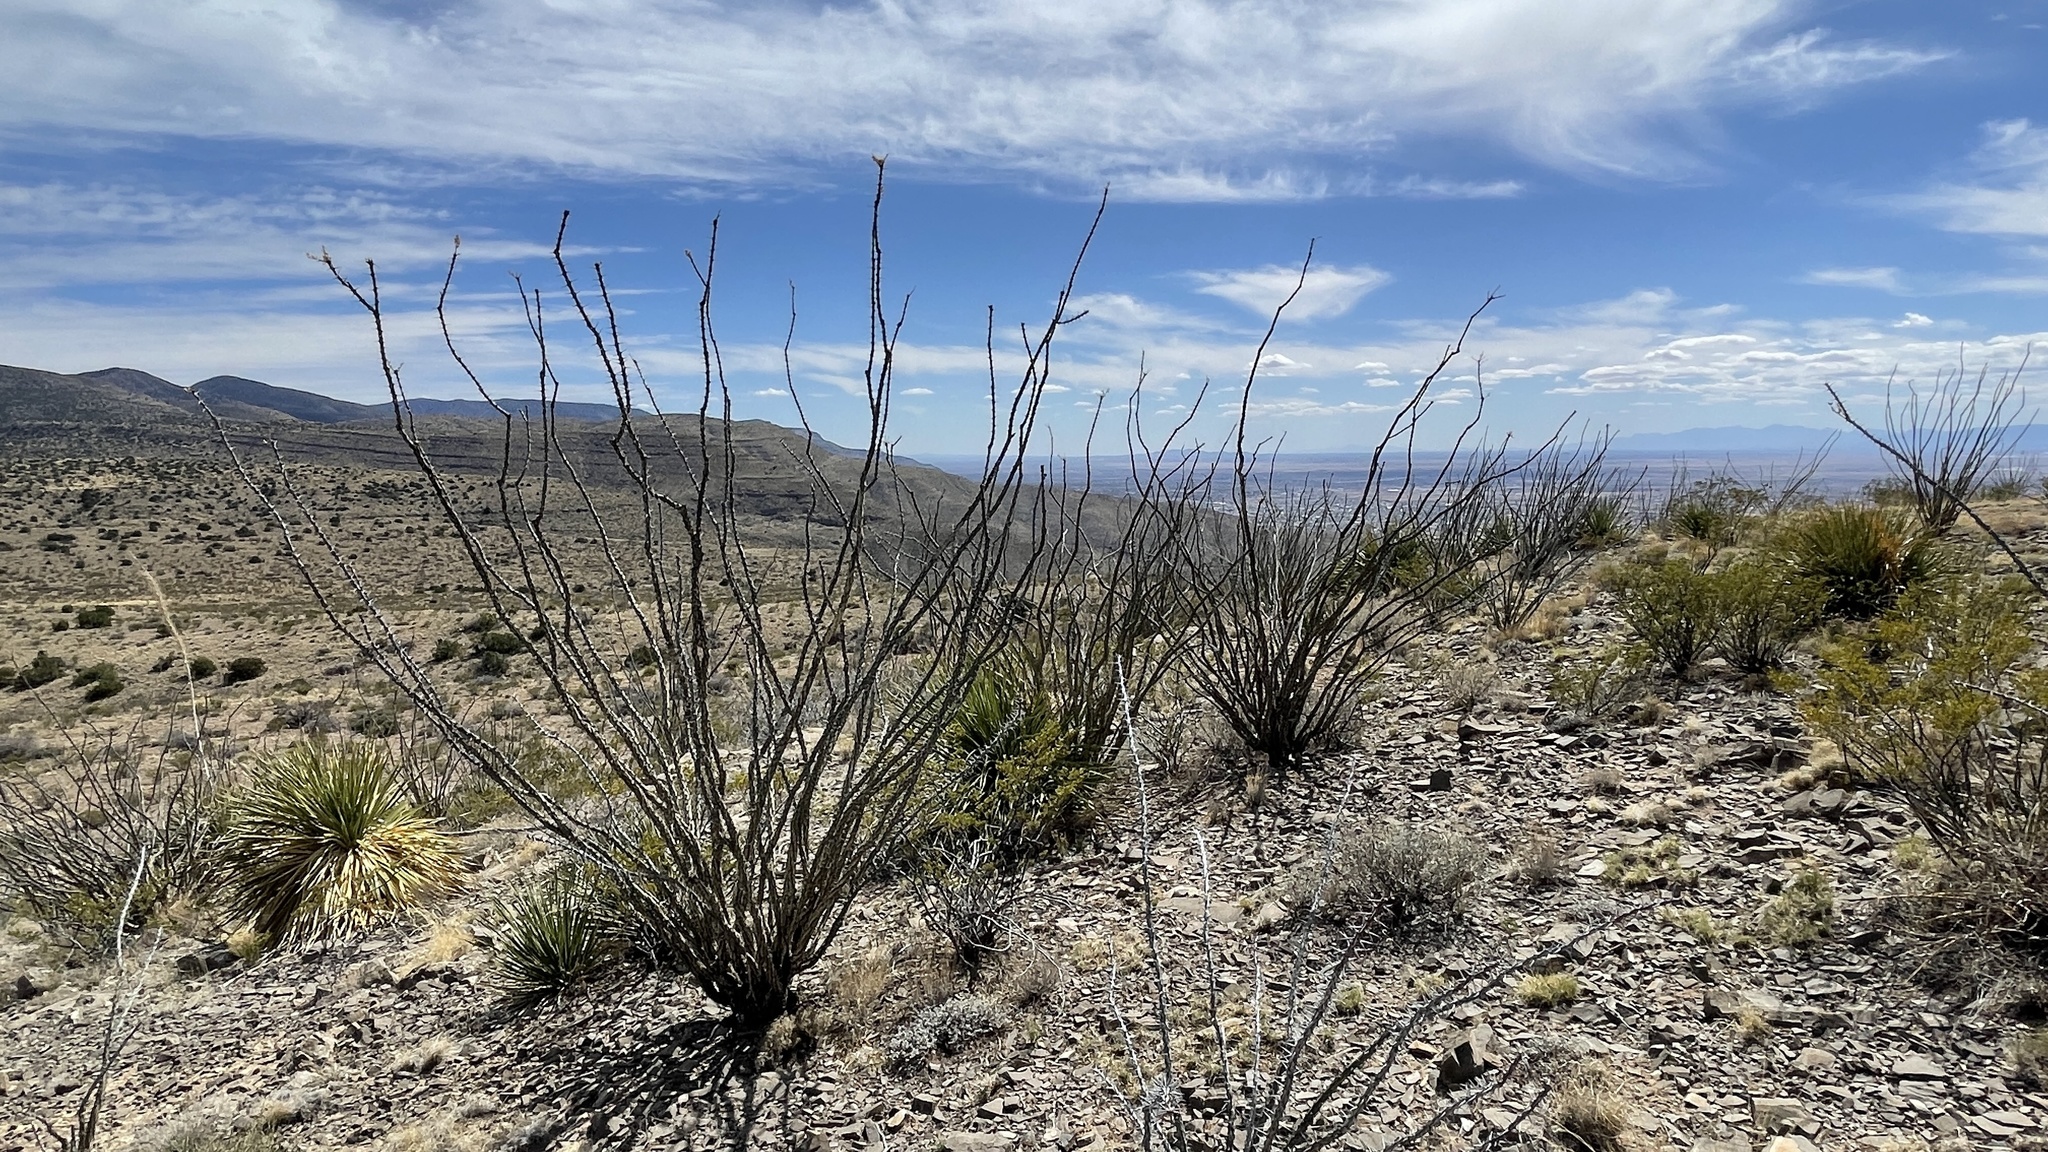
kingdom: Plantae
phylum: Tracheophyta
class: Magnoliopsida
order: Ericales
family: Fouquieriaceae
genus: Fouquieria
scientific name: Fouquieria splendens
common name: Vine-cactus
